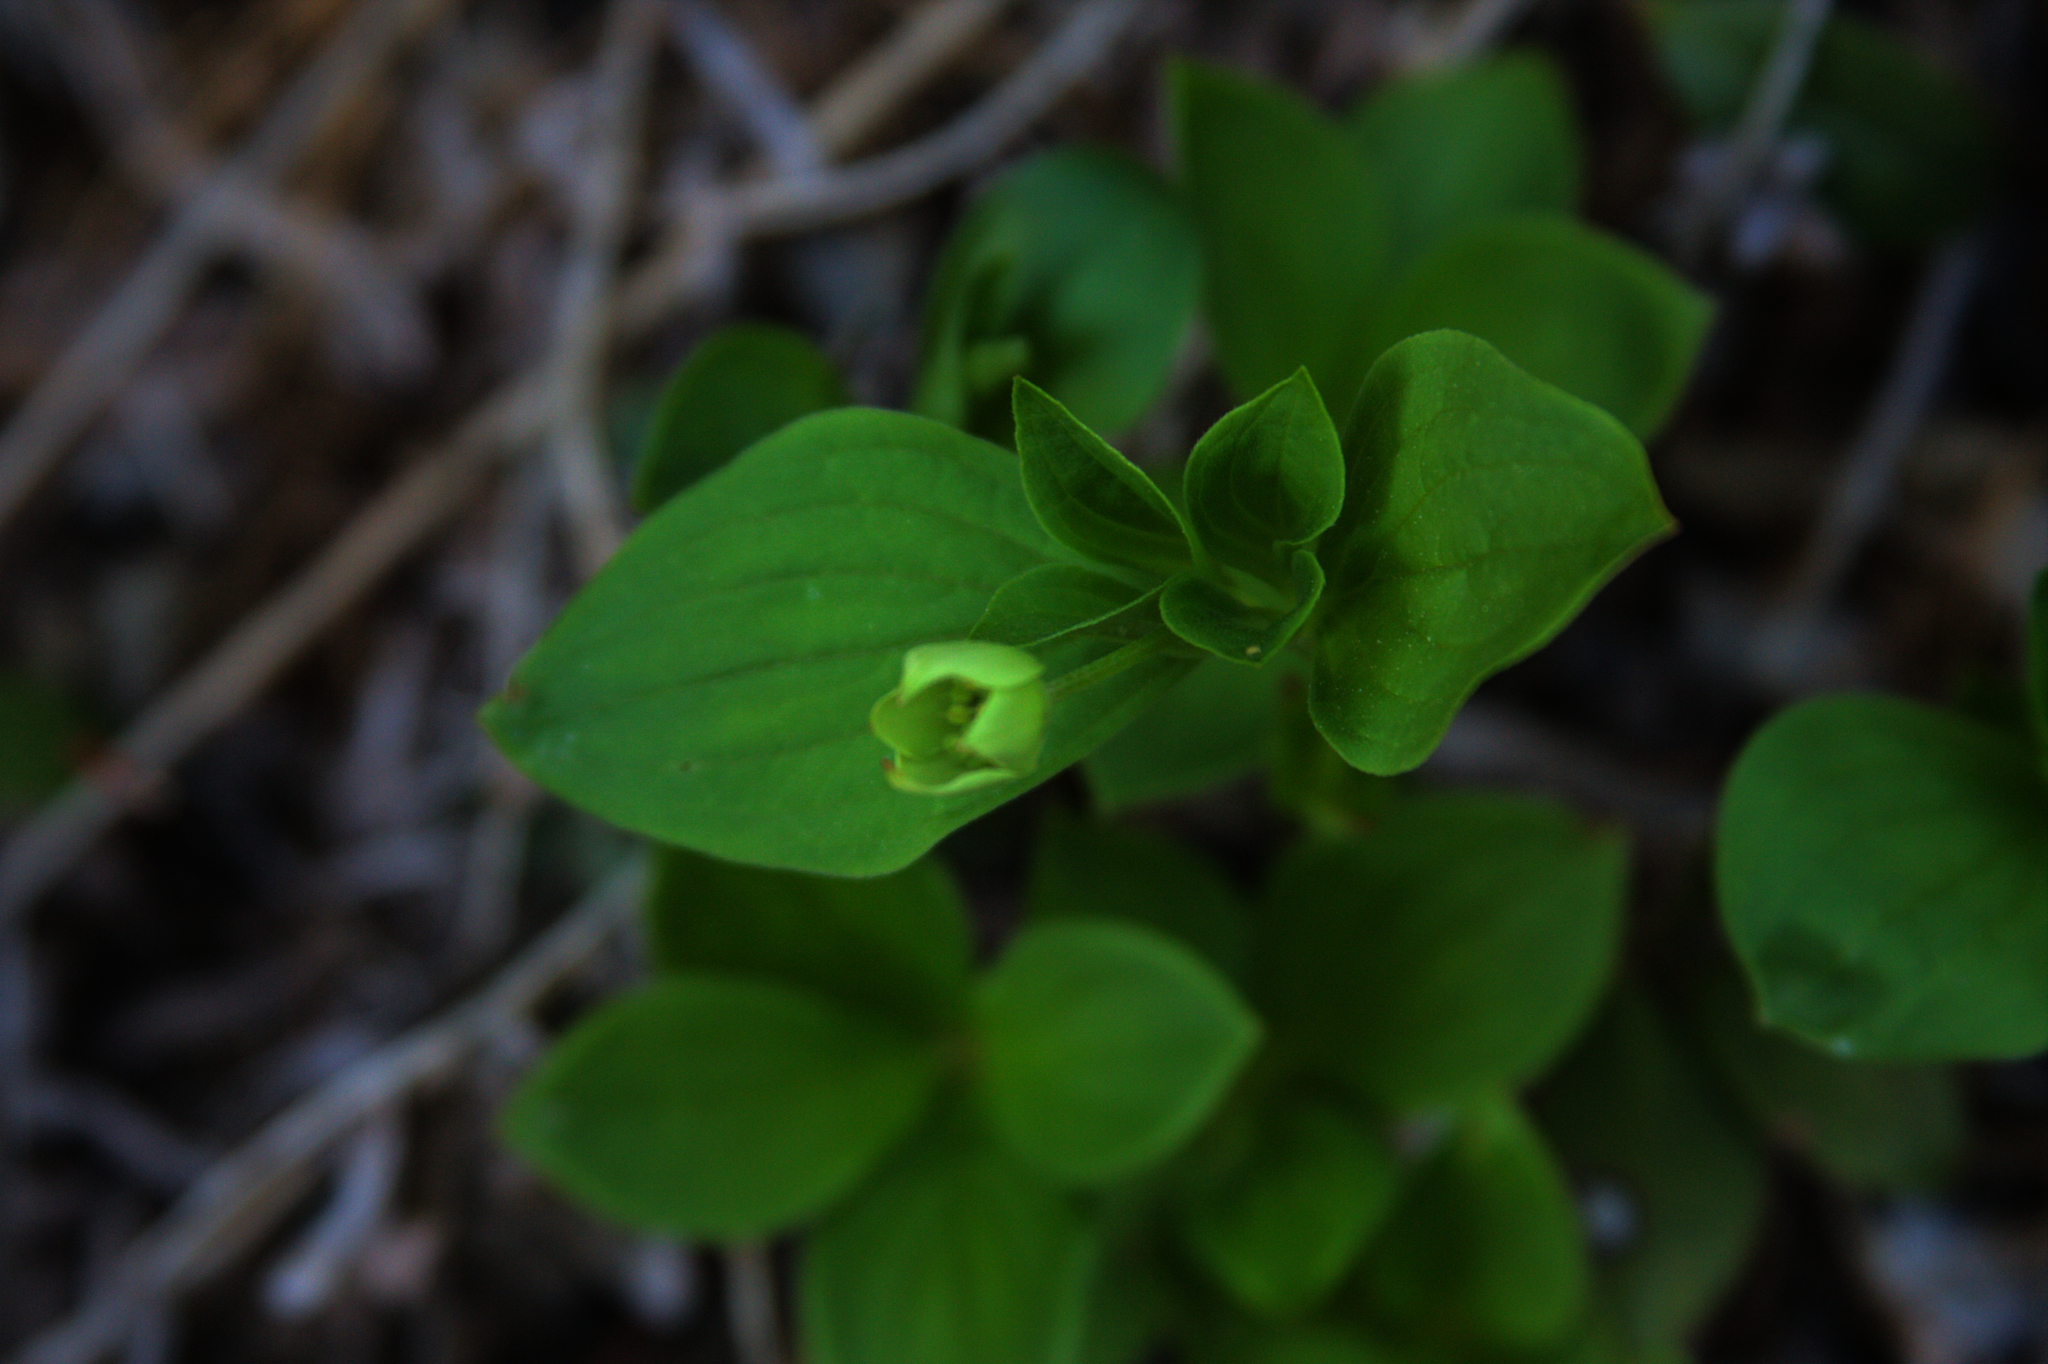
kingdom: Plantae
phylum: Tracheophyta
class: Magnoliopsida
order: Cornales
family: Cornaceae
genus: Cornus
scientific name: Cornus canadensis
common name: Creeping dogwood
